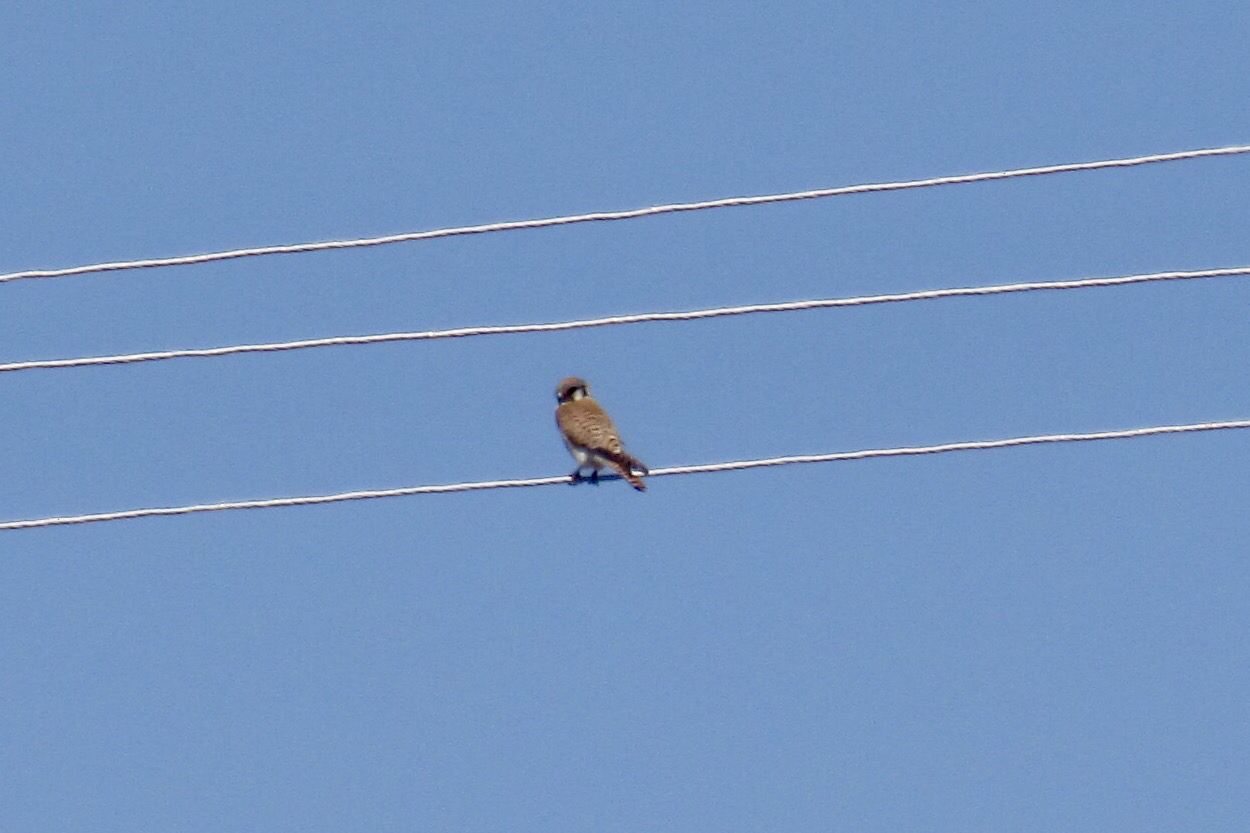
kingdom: Animalia
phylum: Chordata
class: Aves
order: Falconiformes
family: Falconidae
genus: Falco
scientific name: Falco sparverius
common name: American kestrel
